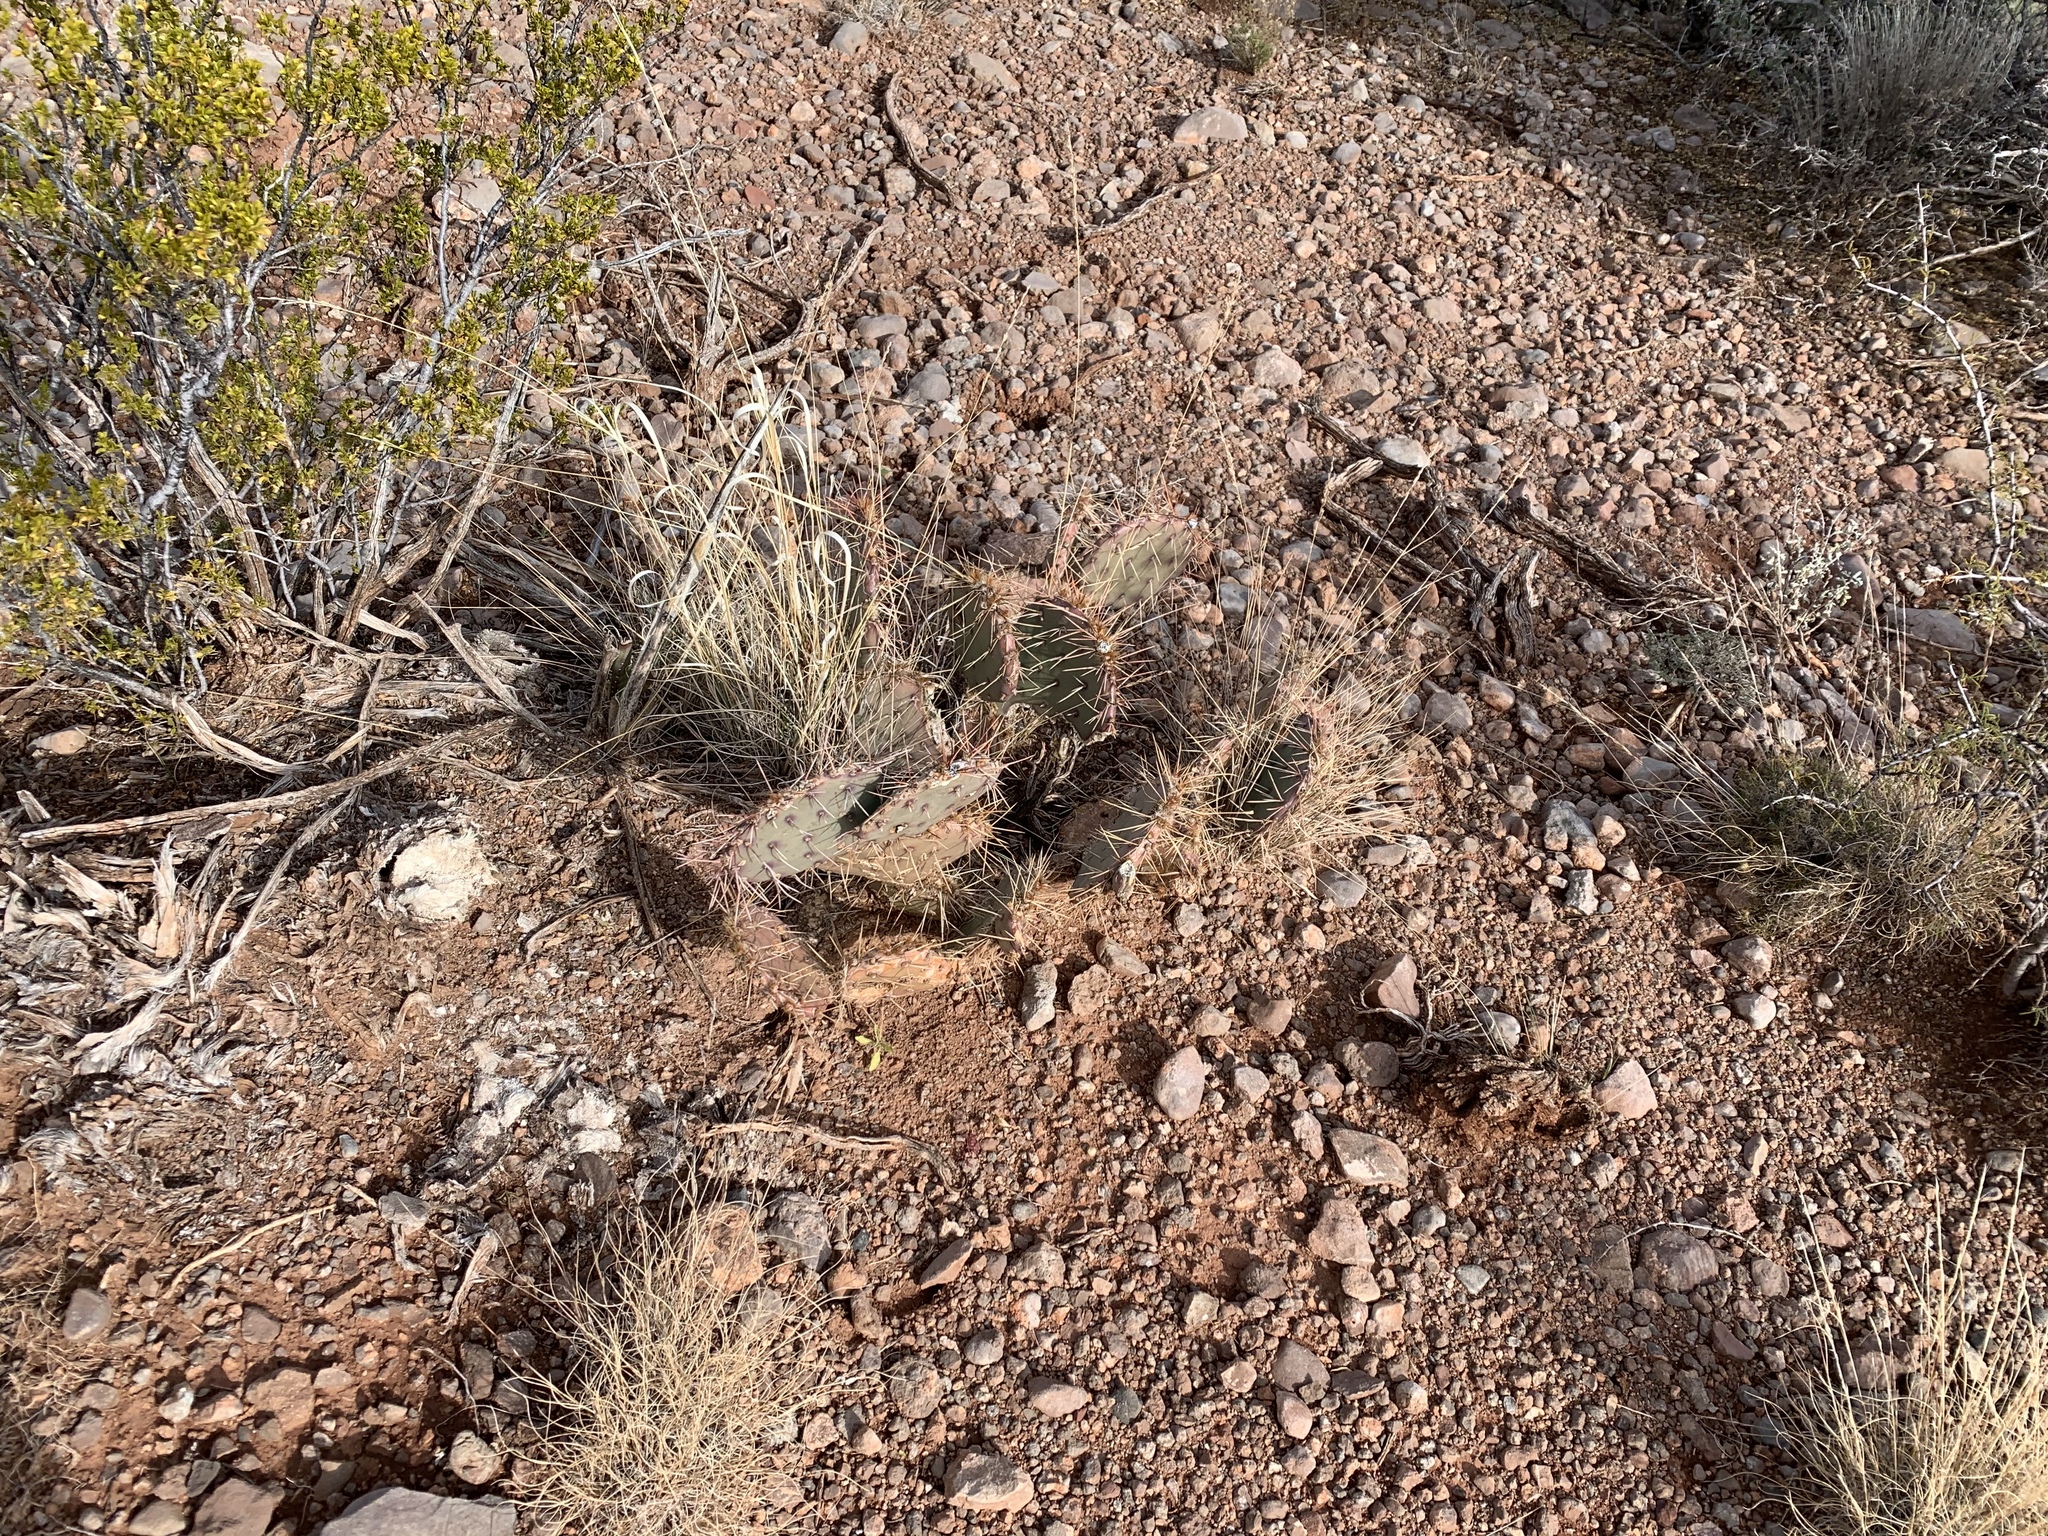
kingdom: Plantae
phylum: Tracheophyta
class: Magnoliopsida
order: Caryophyllales
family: Cactaceae
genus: Opuntia
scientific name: Opuntia phaeacantha
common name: New mexico prickly-pear
